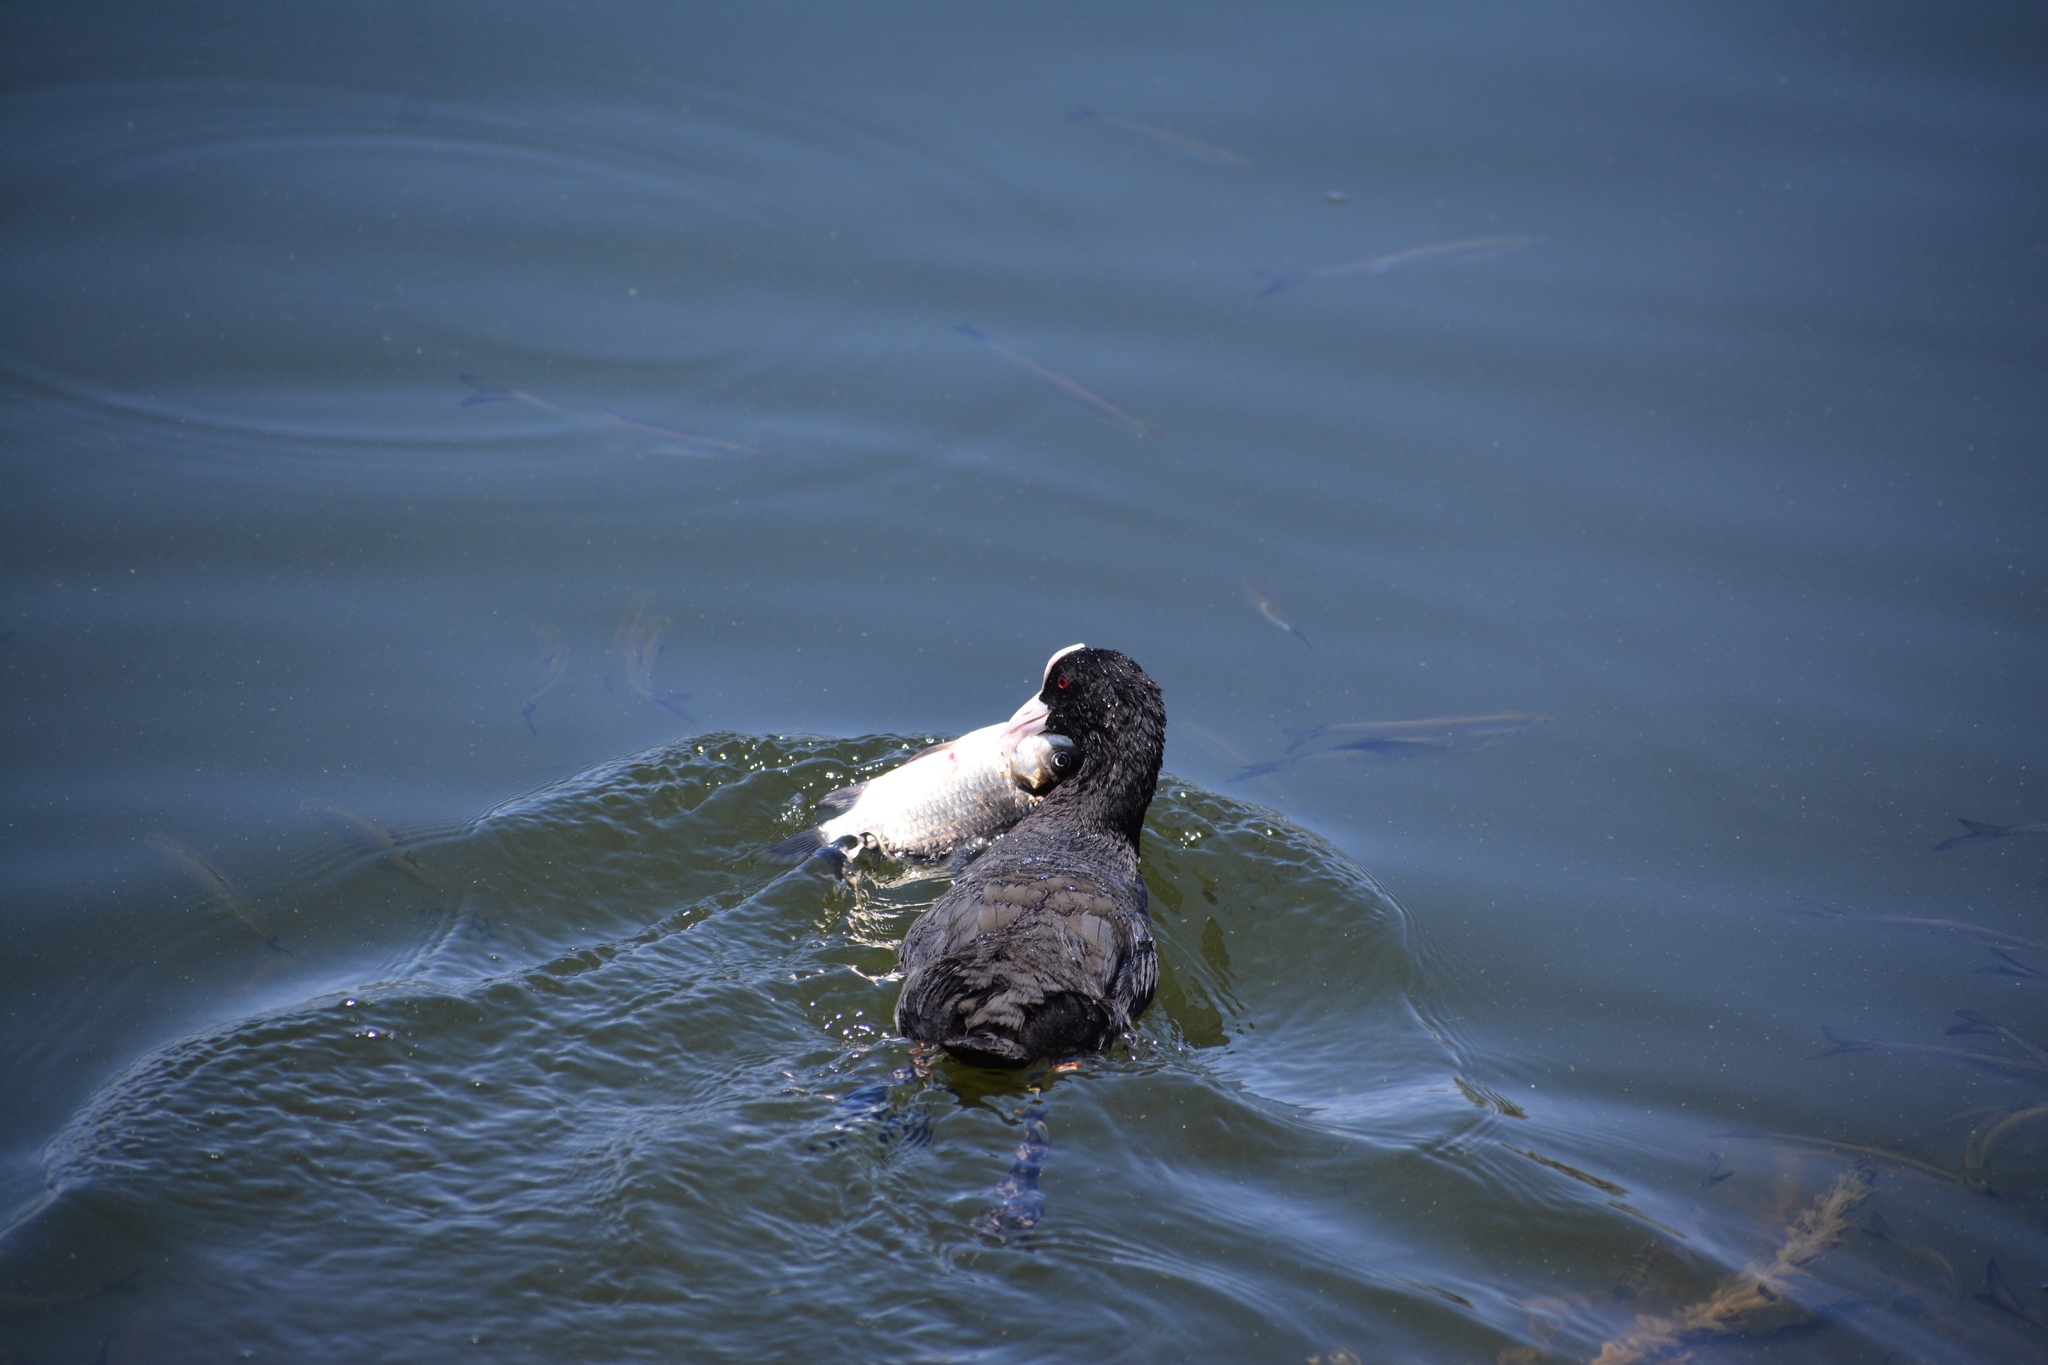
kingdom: Animalia
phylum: Chordata
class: Aves
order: Gruiformes
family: Rallidae
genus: Fulica
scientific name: Fulica atra
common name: Eurasian coot
